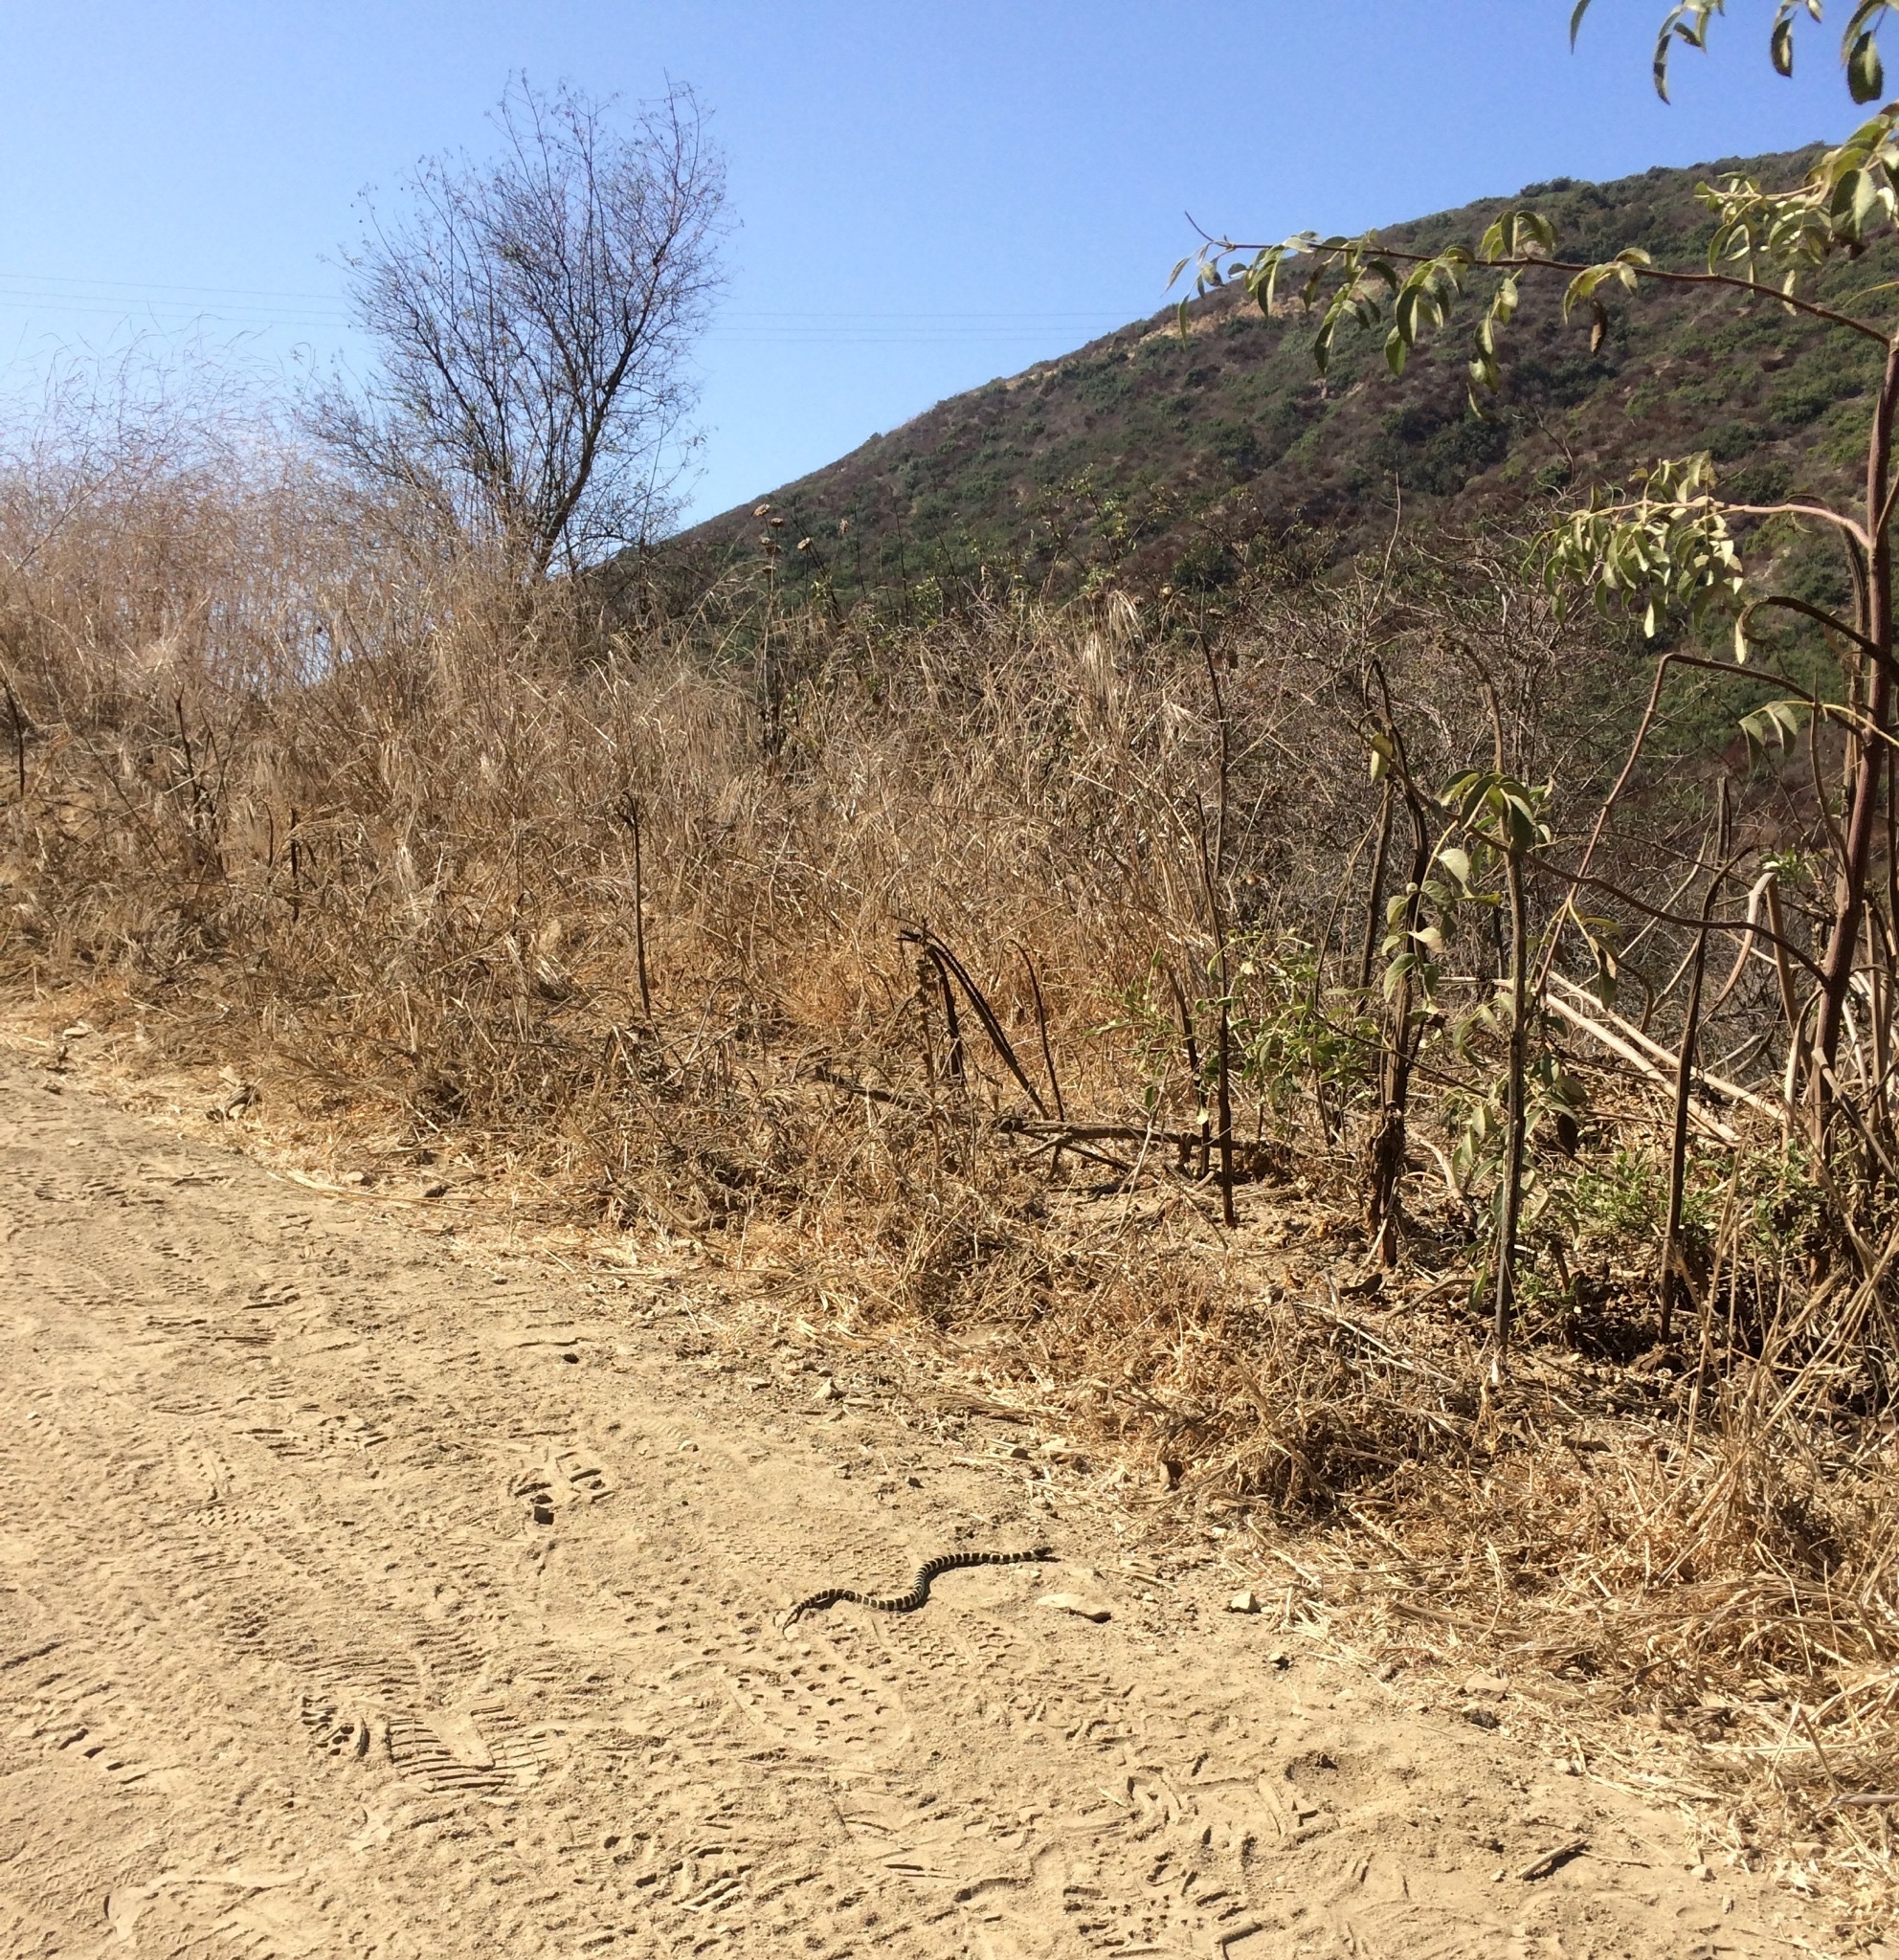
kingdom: Animalia
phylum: Chordata
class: Squamata
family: Colubridae
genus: Lampropeltis
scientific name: Lampropeltis californiae
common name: California kingsnake
